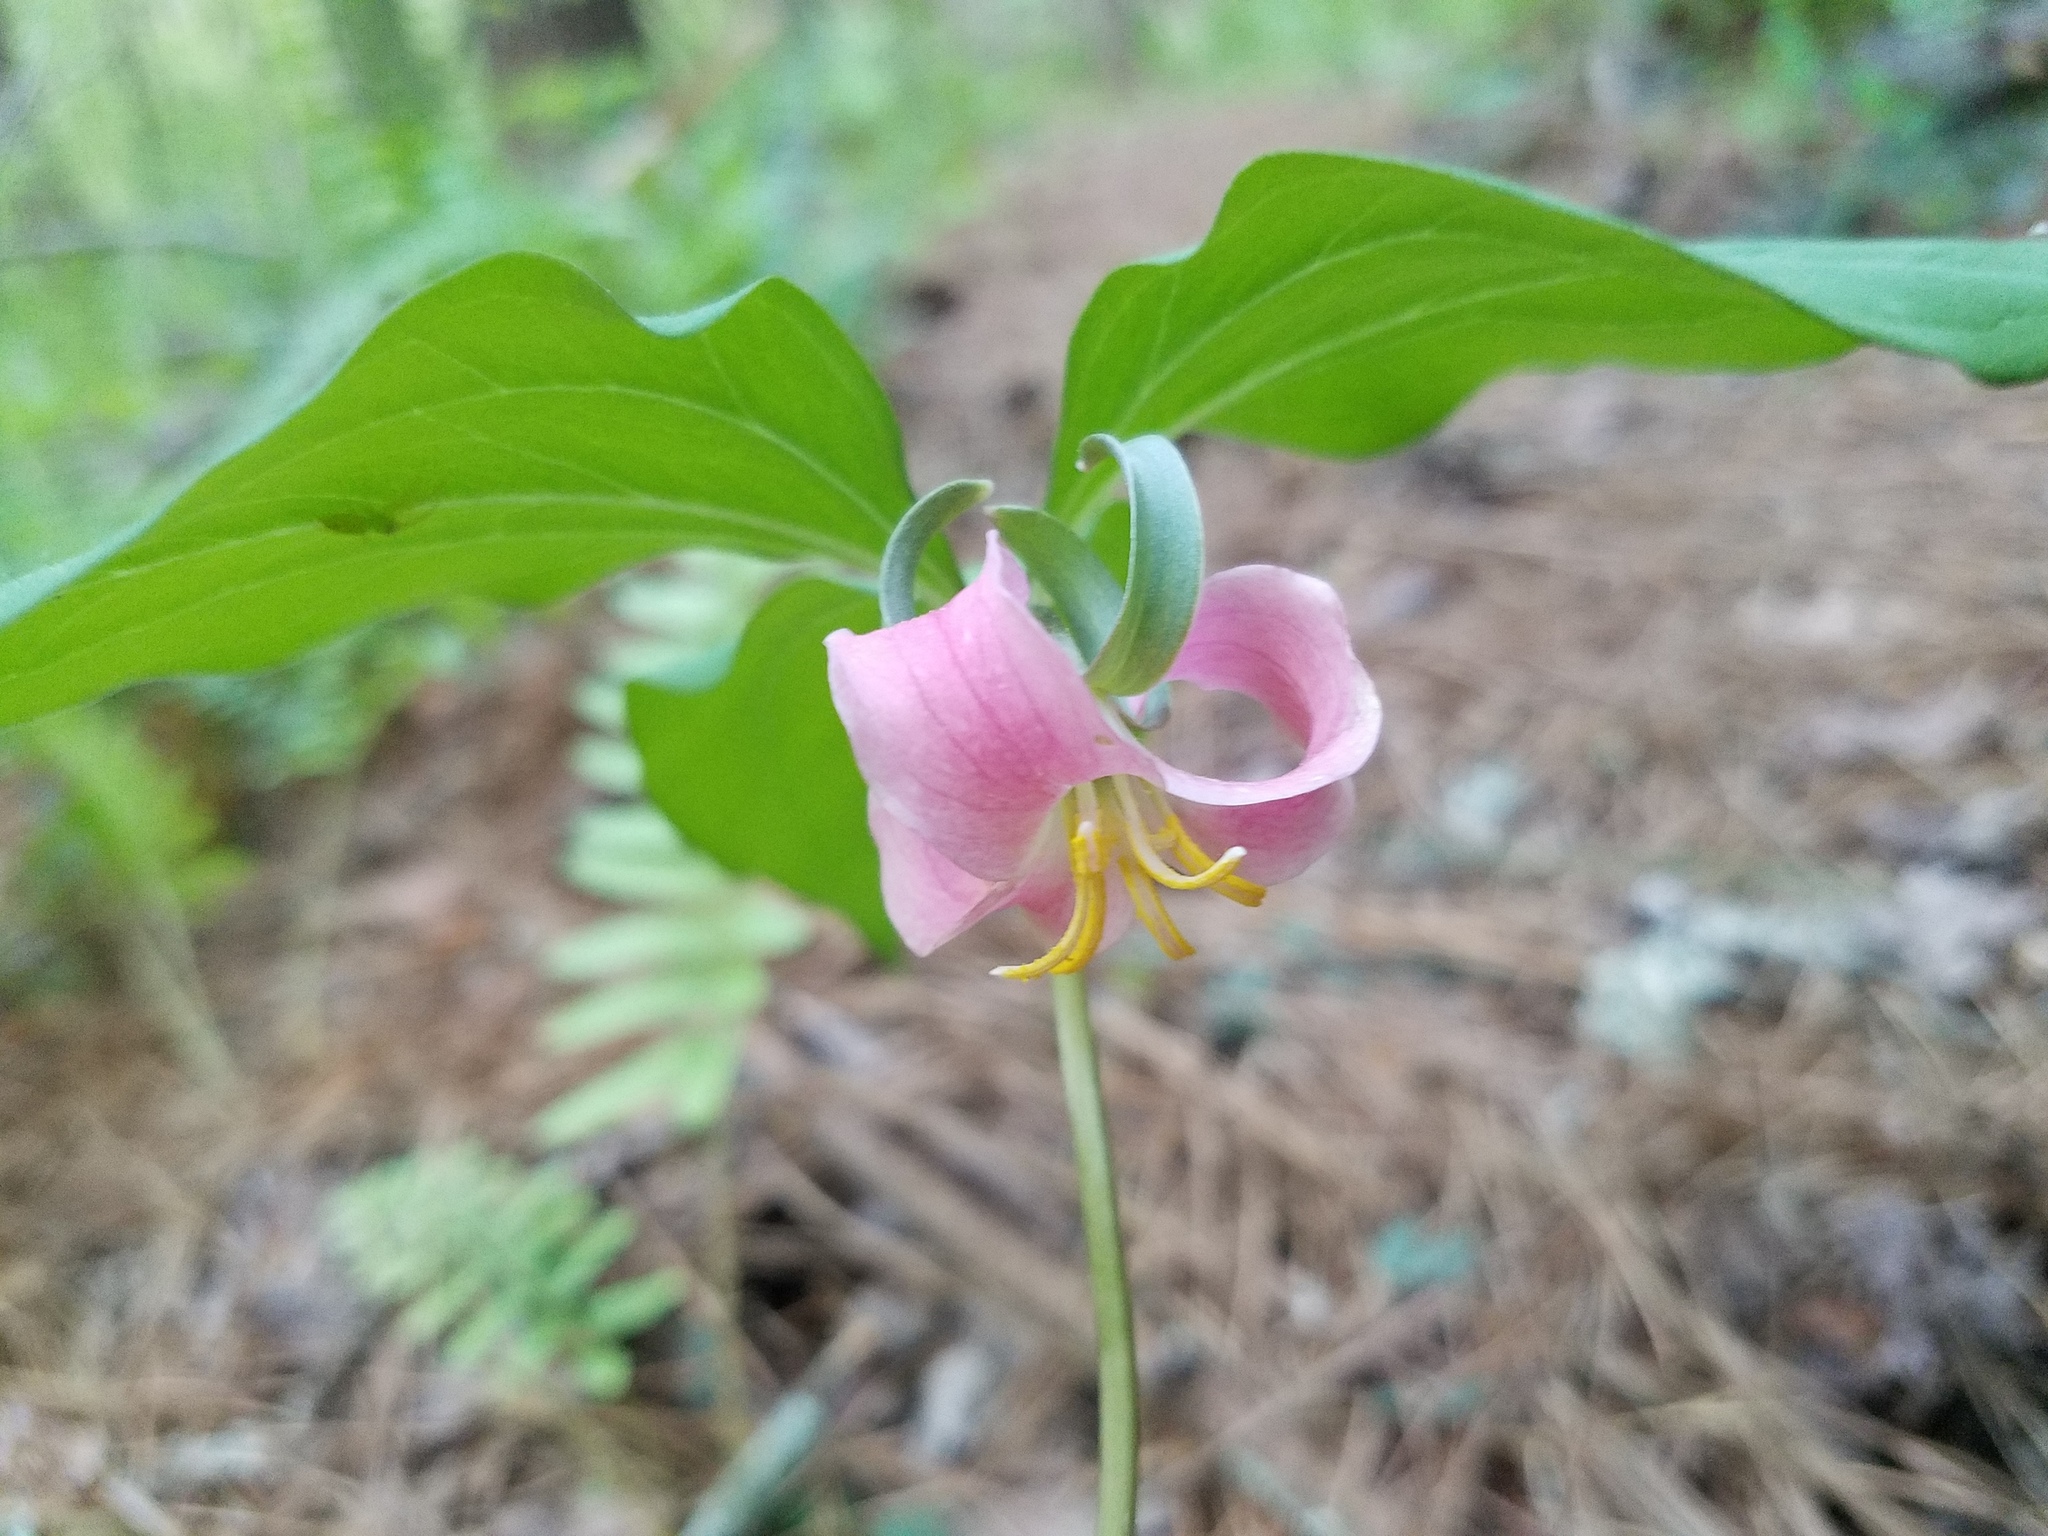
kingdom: Plantae
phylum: Tracheophyta
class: Liliopsida
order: Liliales
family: Melanthiaceae
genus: Trillium
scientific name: Trillium catesbaei
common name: Bashful trillium
